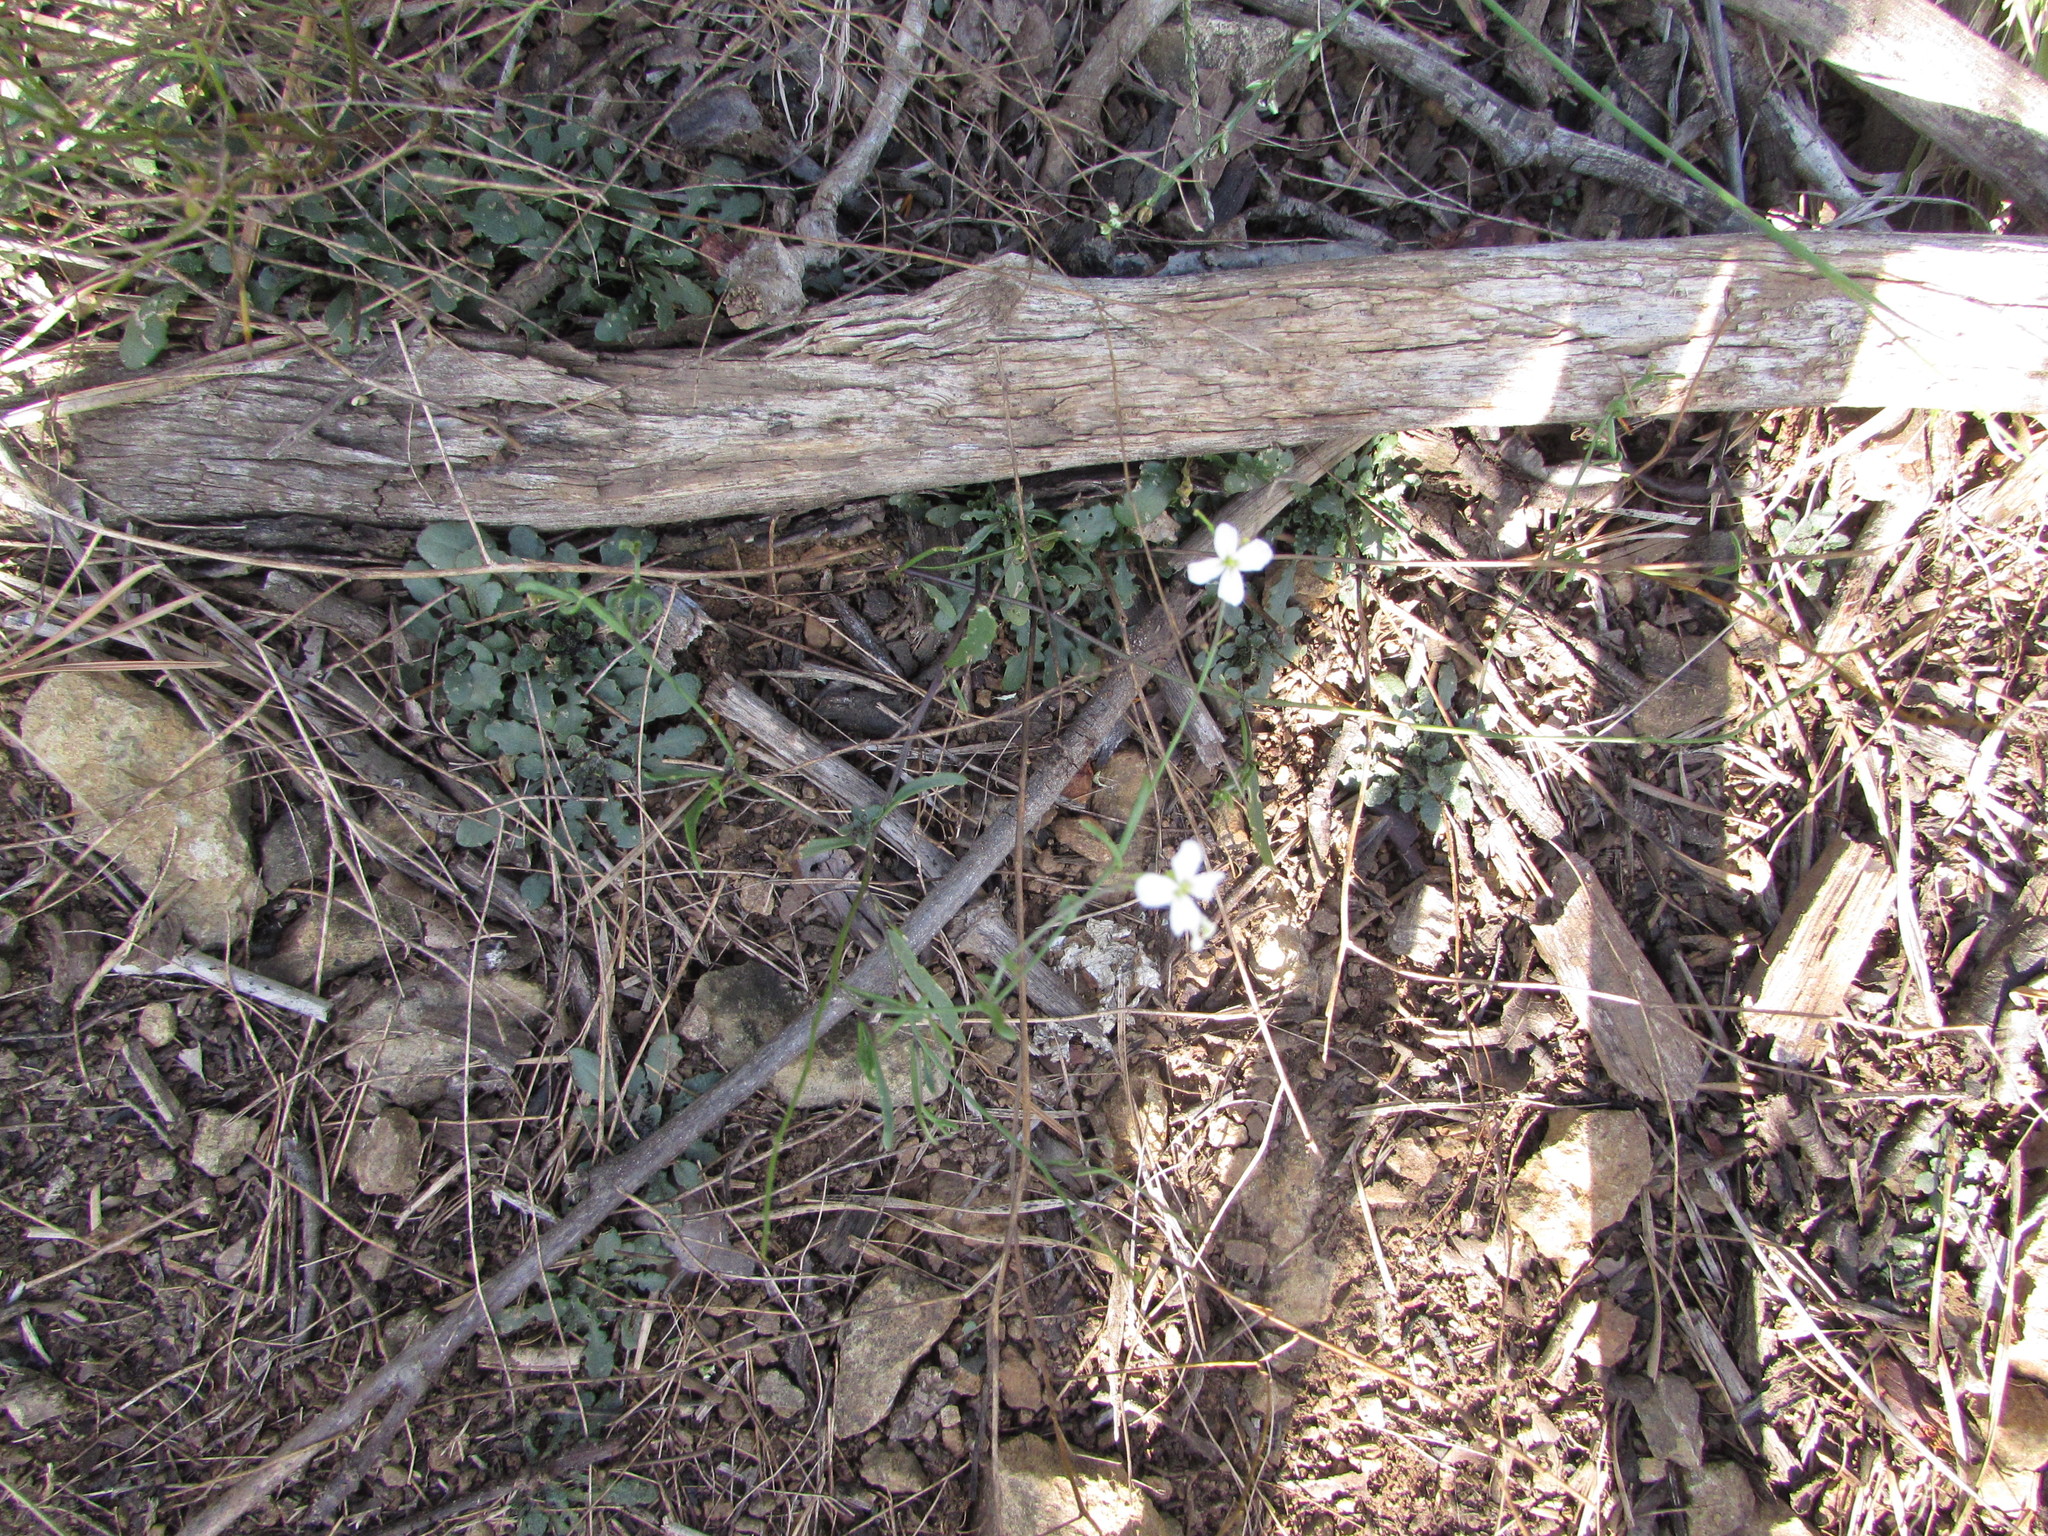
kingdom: Plantae
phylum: Tracheophyta
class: Magnoliopsida
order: Brassicales
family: Brassicaceae
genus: Arabidopsis
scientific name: Arabidopsis lyrata
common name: Lyrate rockcress
